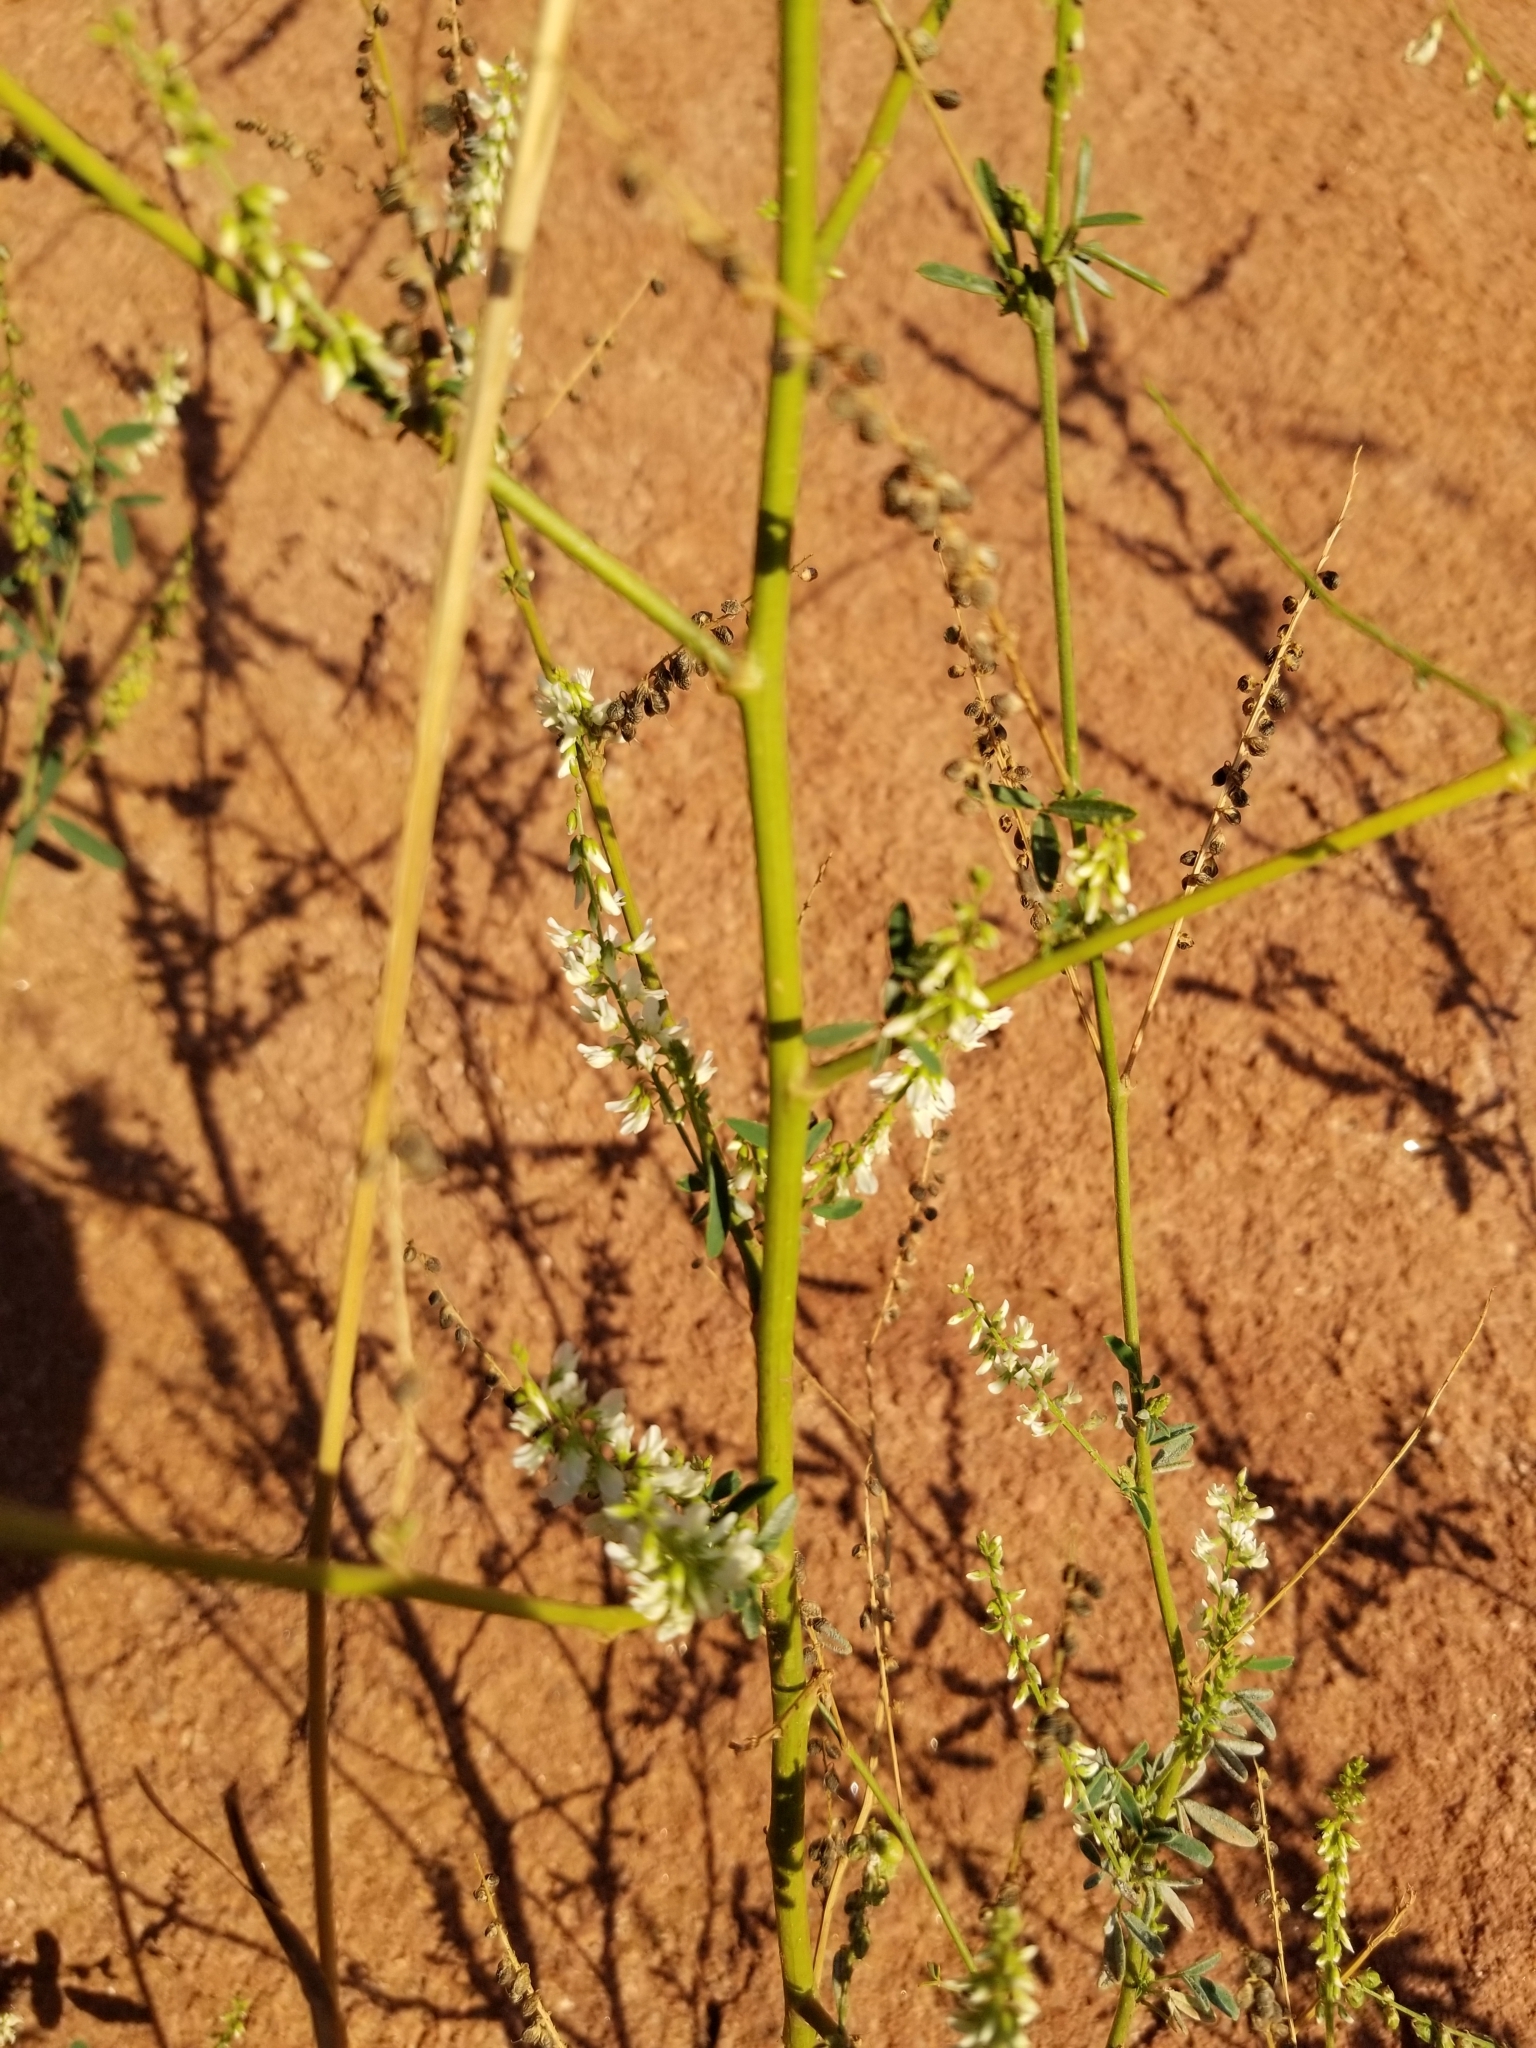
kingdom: Plantae
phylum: Tracheophyta
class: Magnoliopsida
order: Fabales
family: Fabaceae
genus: Melilotus
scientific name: Melilotus albus
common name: White melilot
